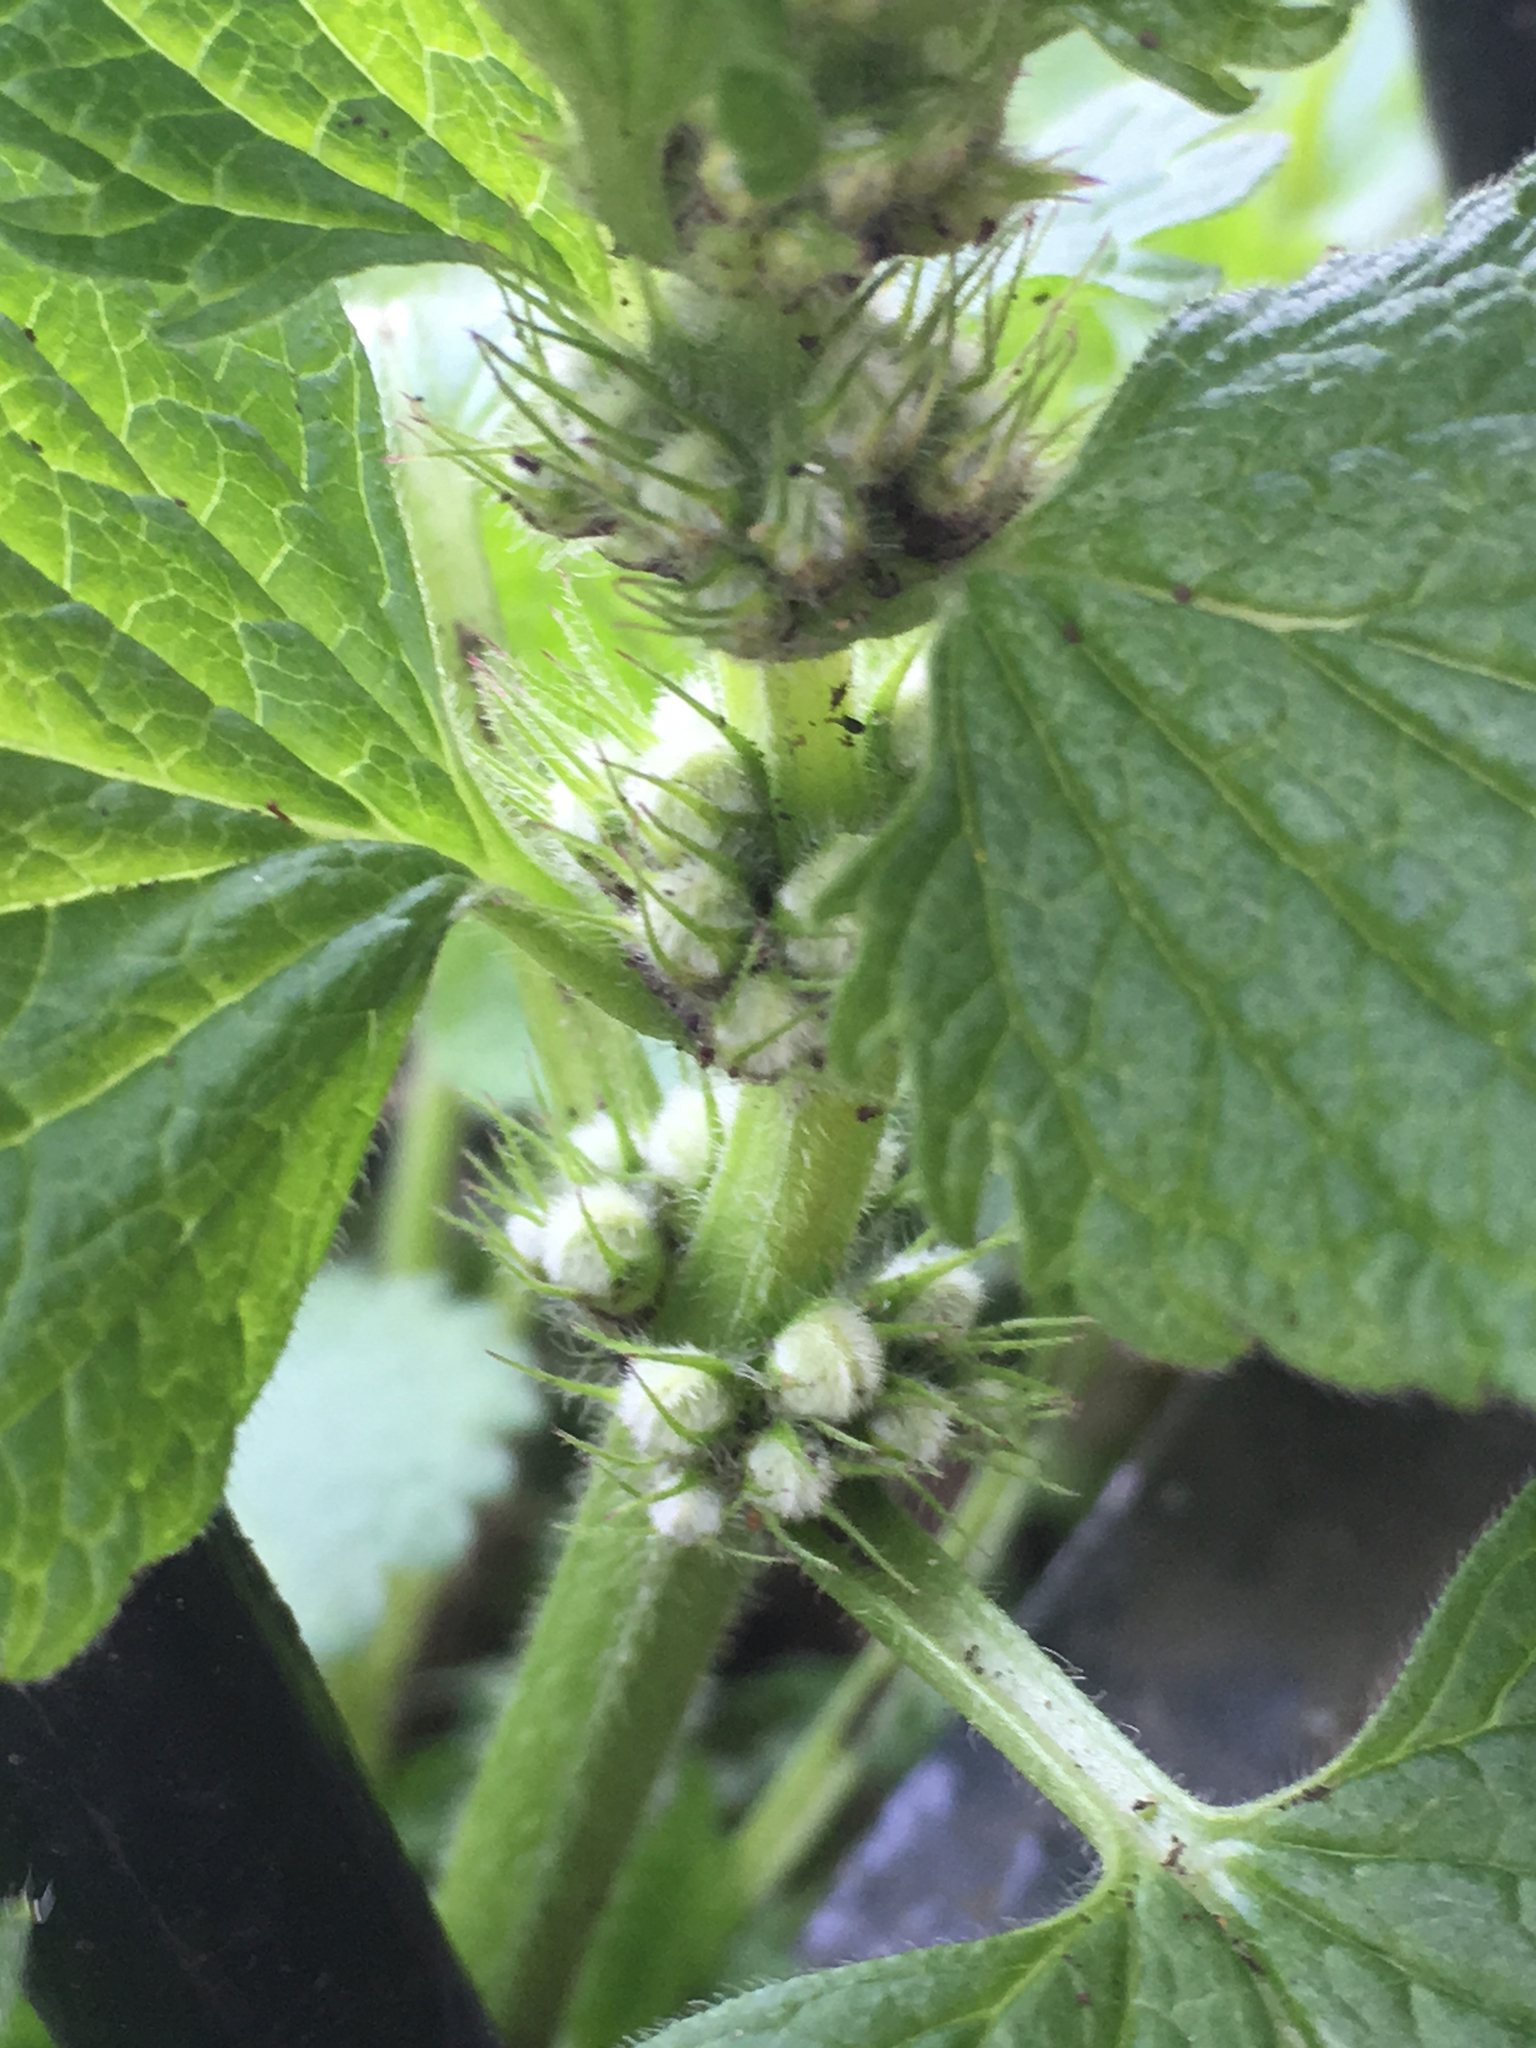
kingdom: Plantae
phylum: Tracheophyta
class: Magnoliopsida
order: Lamiales
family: Lamiaceae
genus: Lamium
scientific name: Lamium album
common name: White dead-nettle
